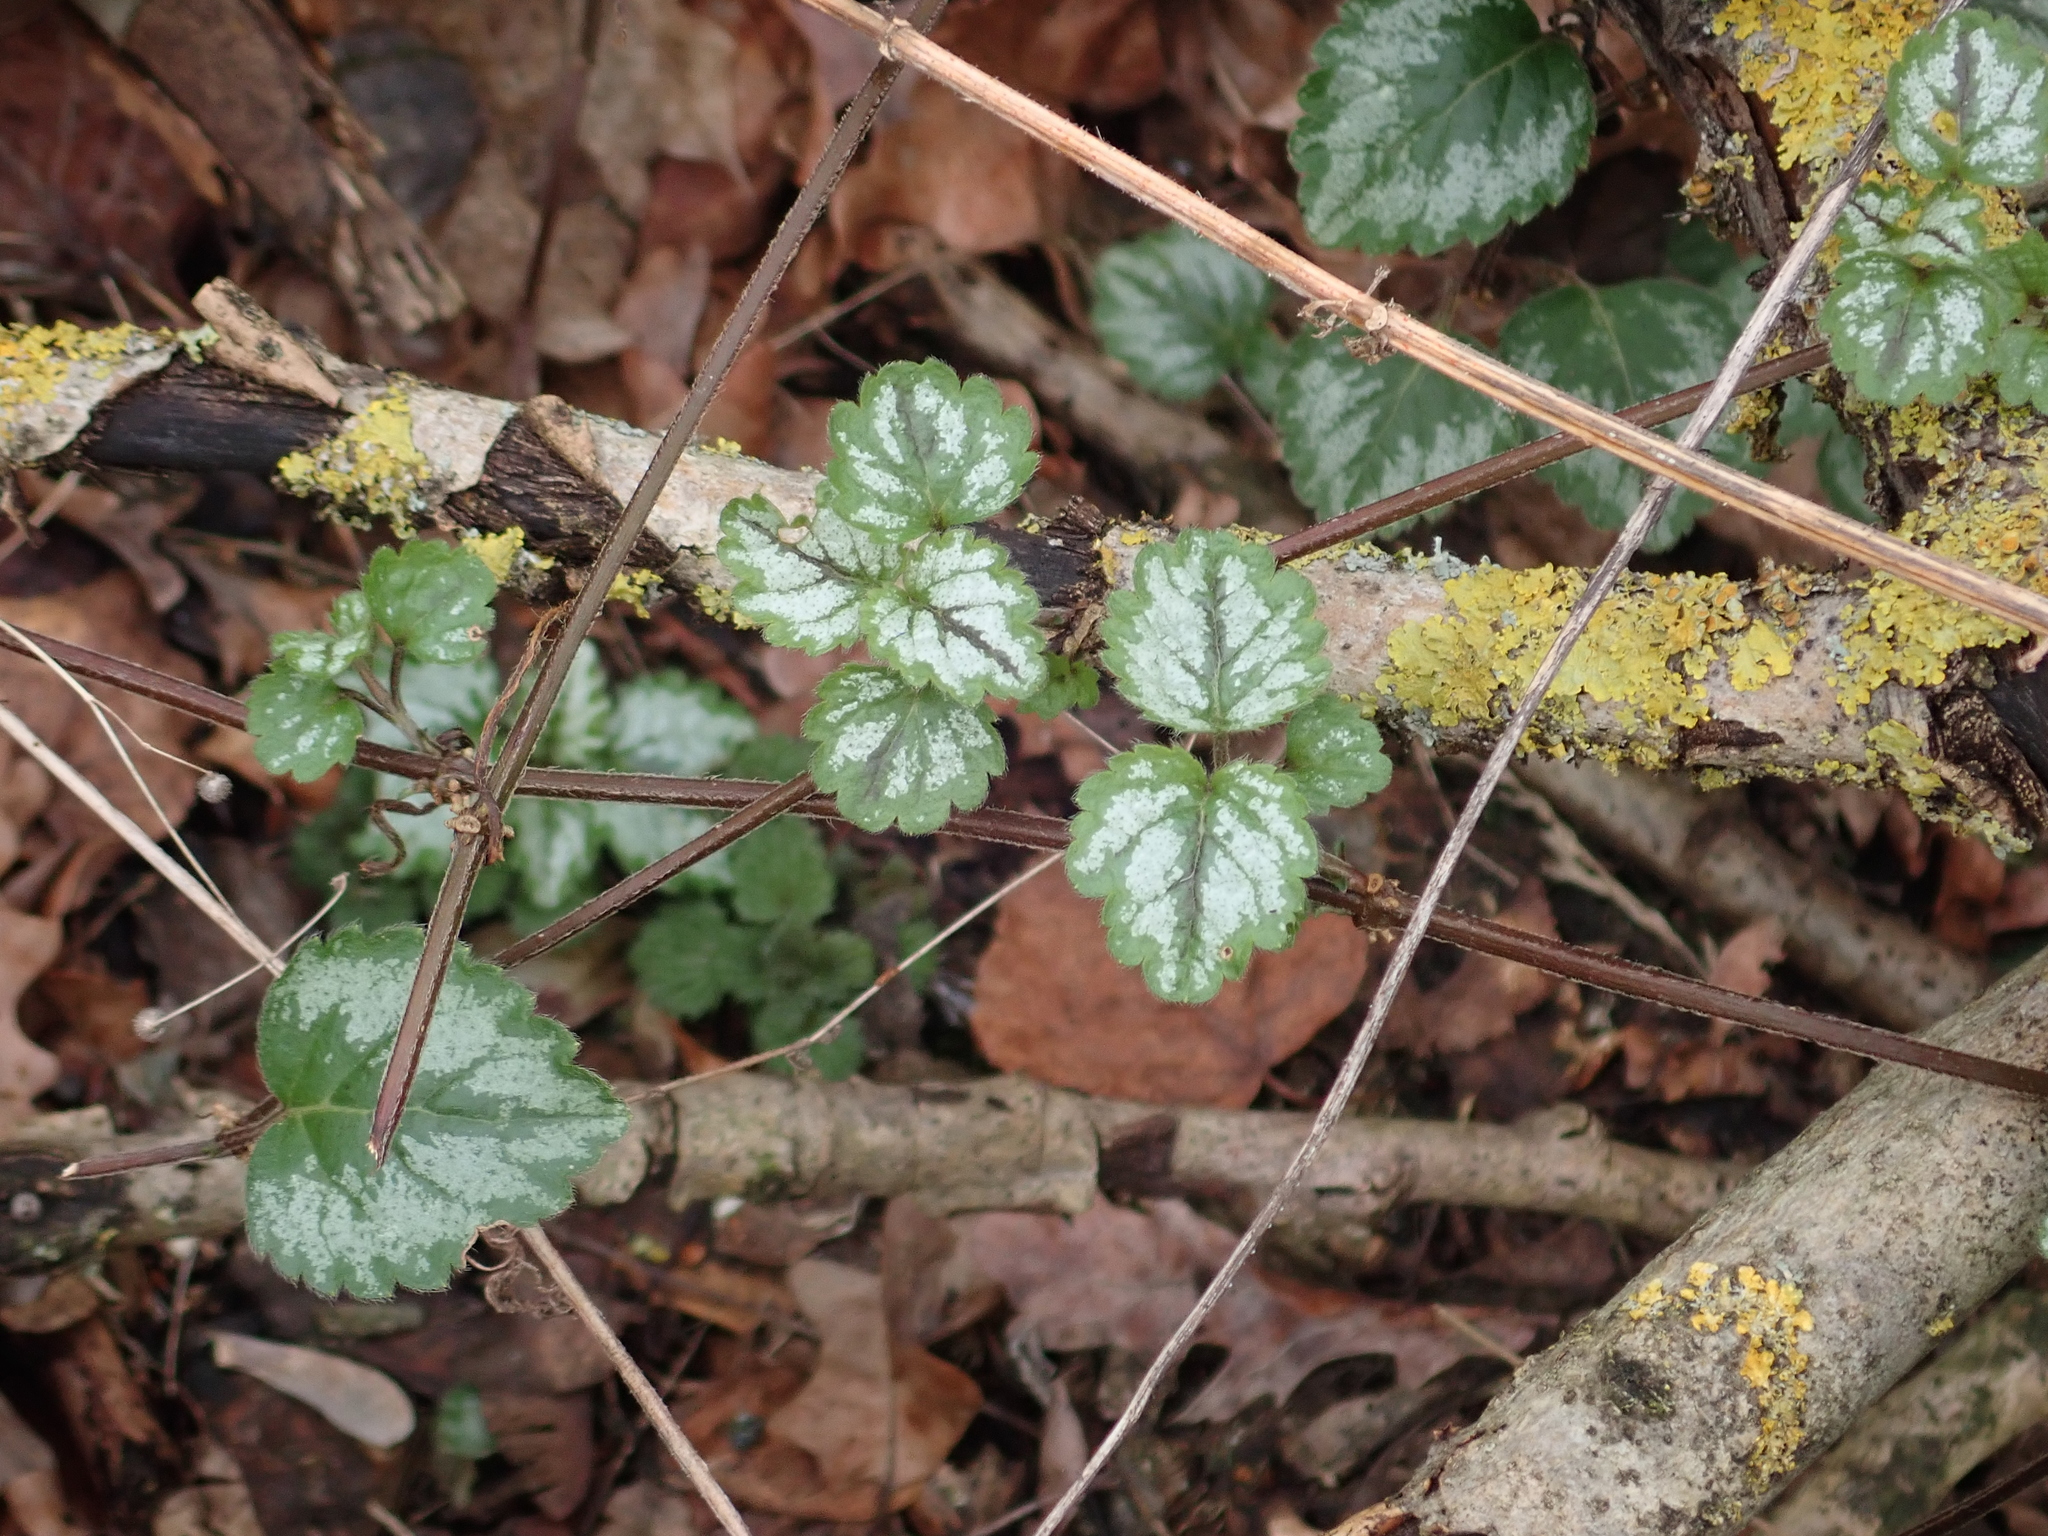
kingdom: Plantae
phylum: Tracheophyta
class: Magnoliopsida
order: Lamiales
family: Lamiaceae
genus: Lamium
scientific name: Lamium galeobdolon
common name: Yellow archangel
